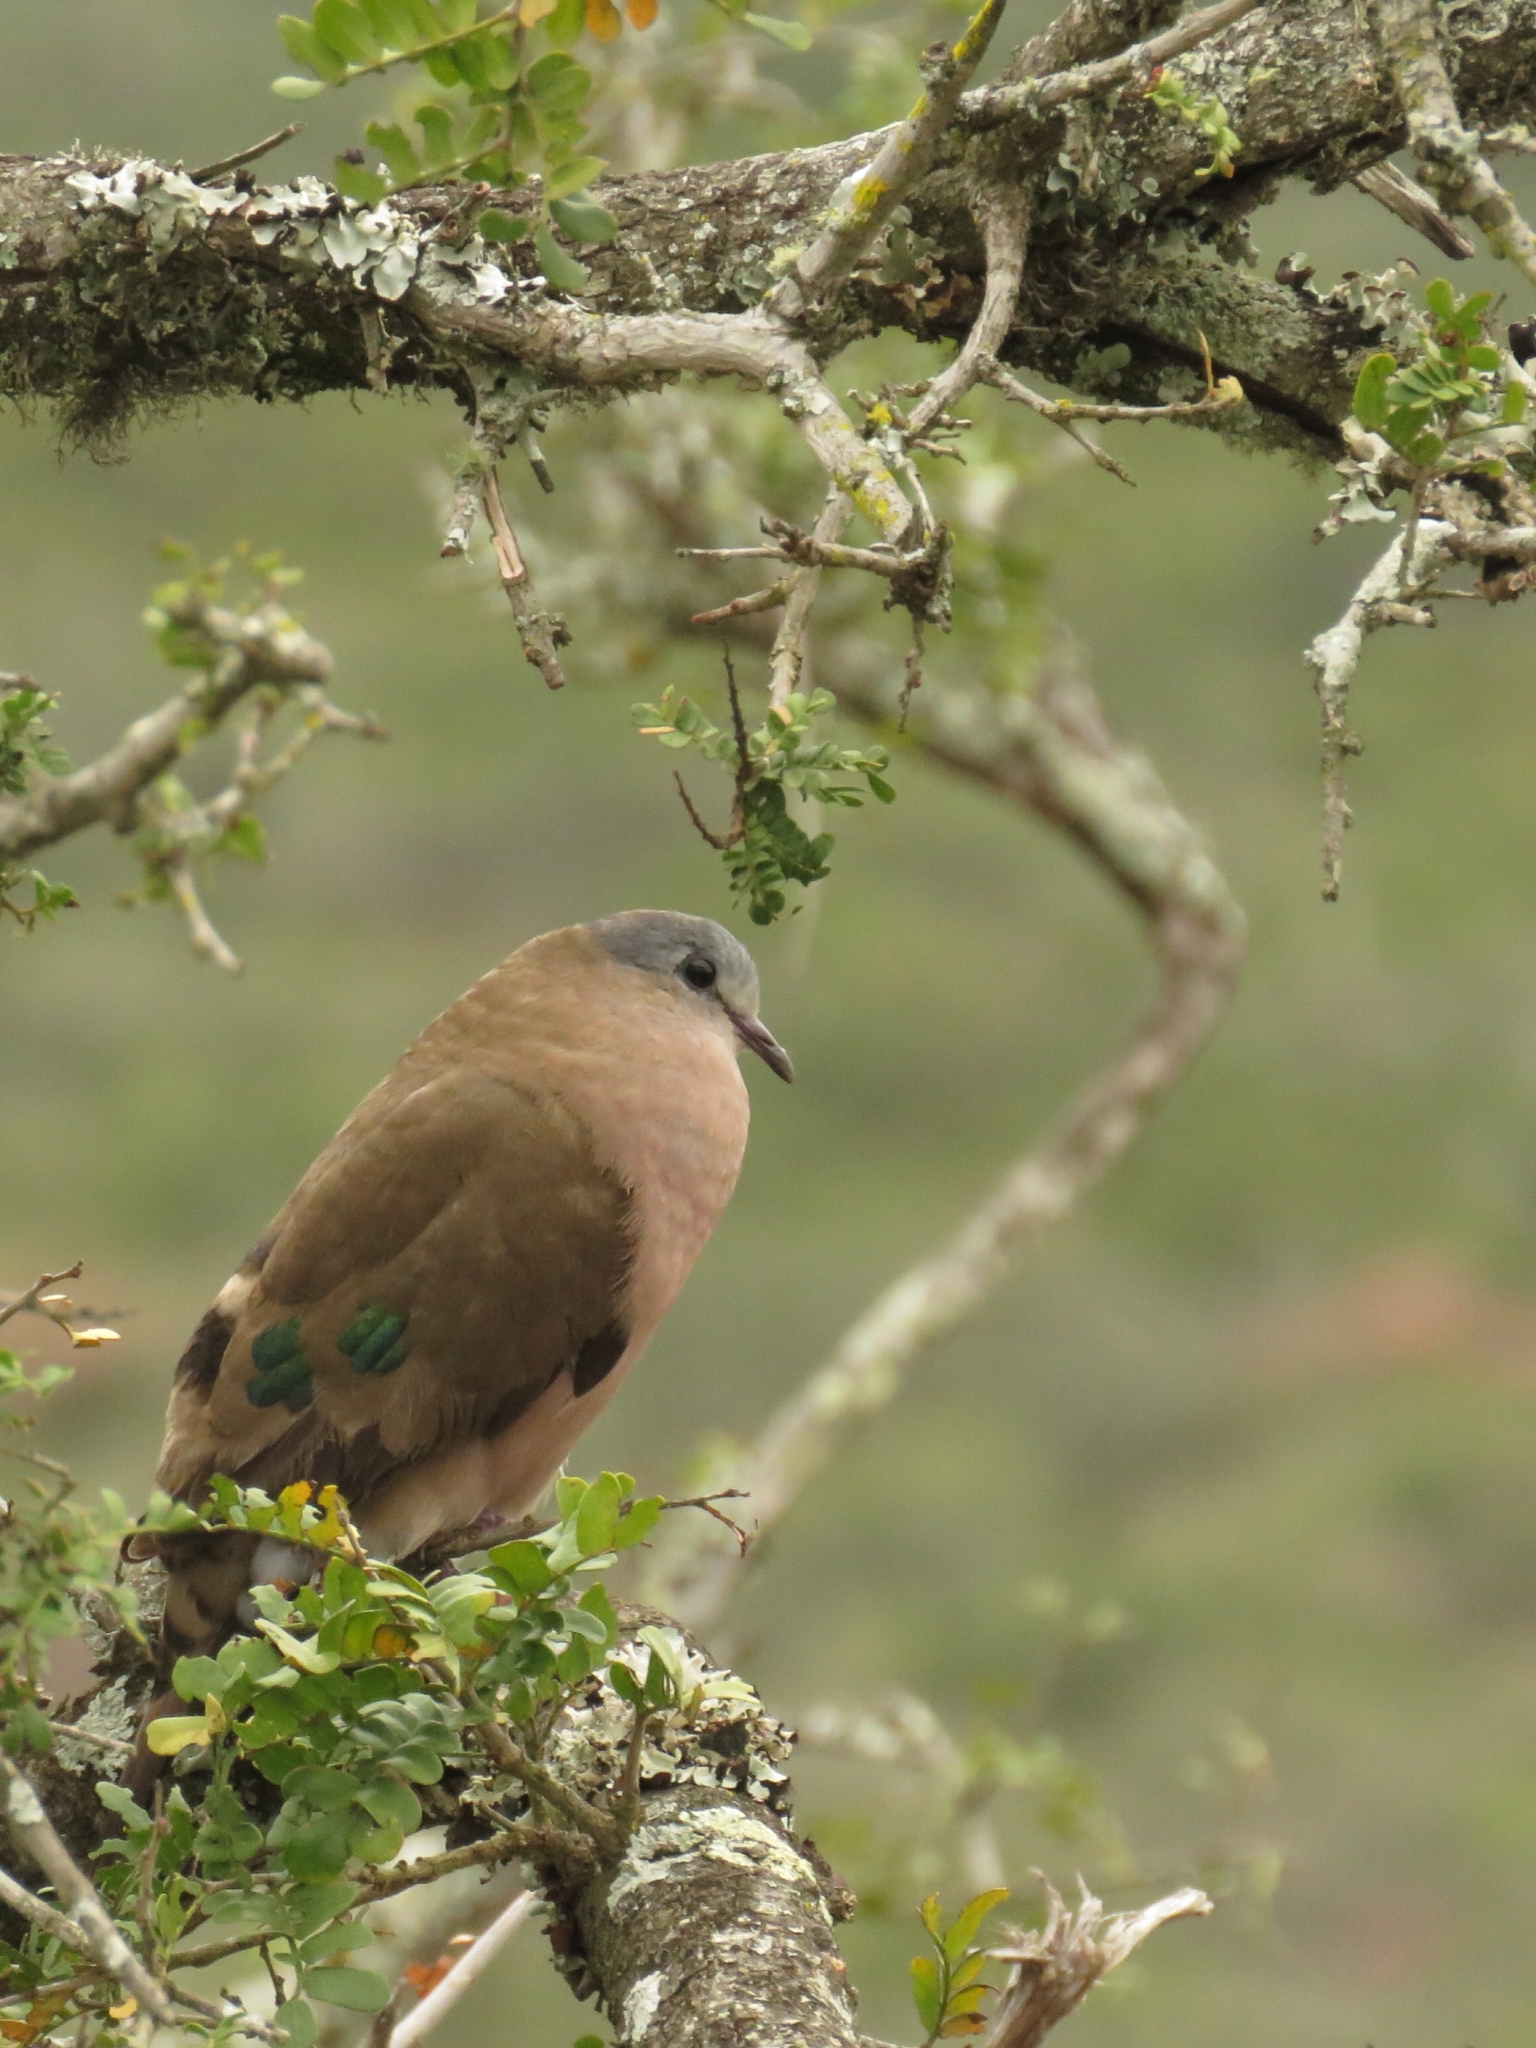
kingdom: Animalia
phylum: Chordata
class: Aves
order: Columbiformes
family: Columbidae
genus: Turtur
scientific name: Turtur chalcospilos
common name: Emerald-spotted wood dove
